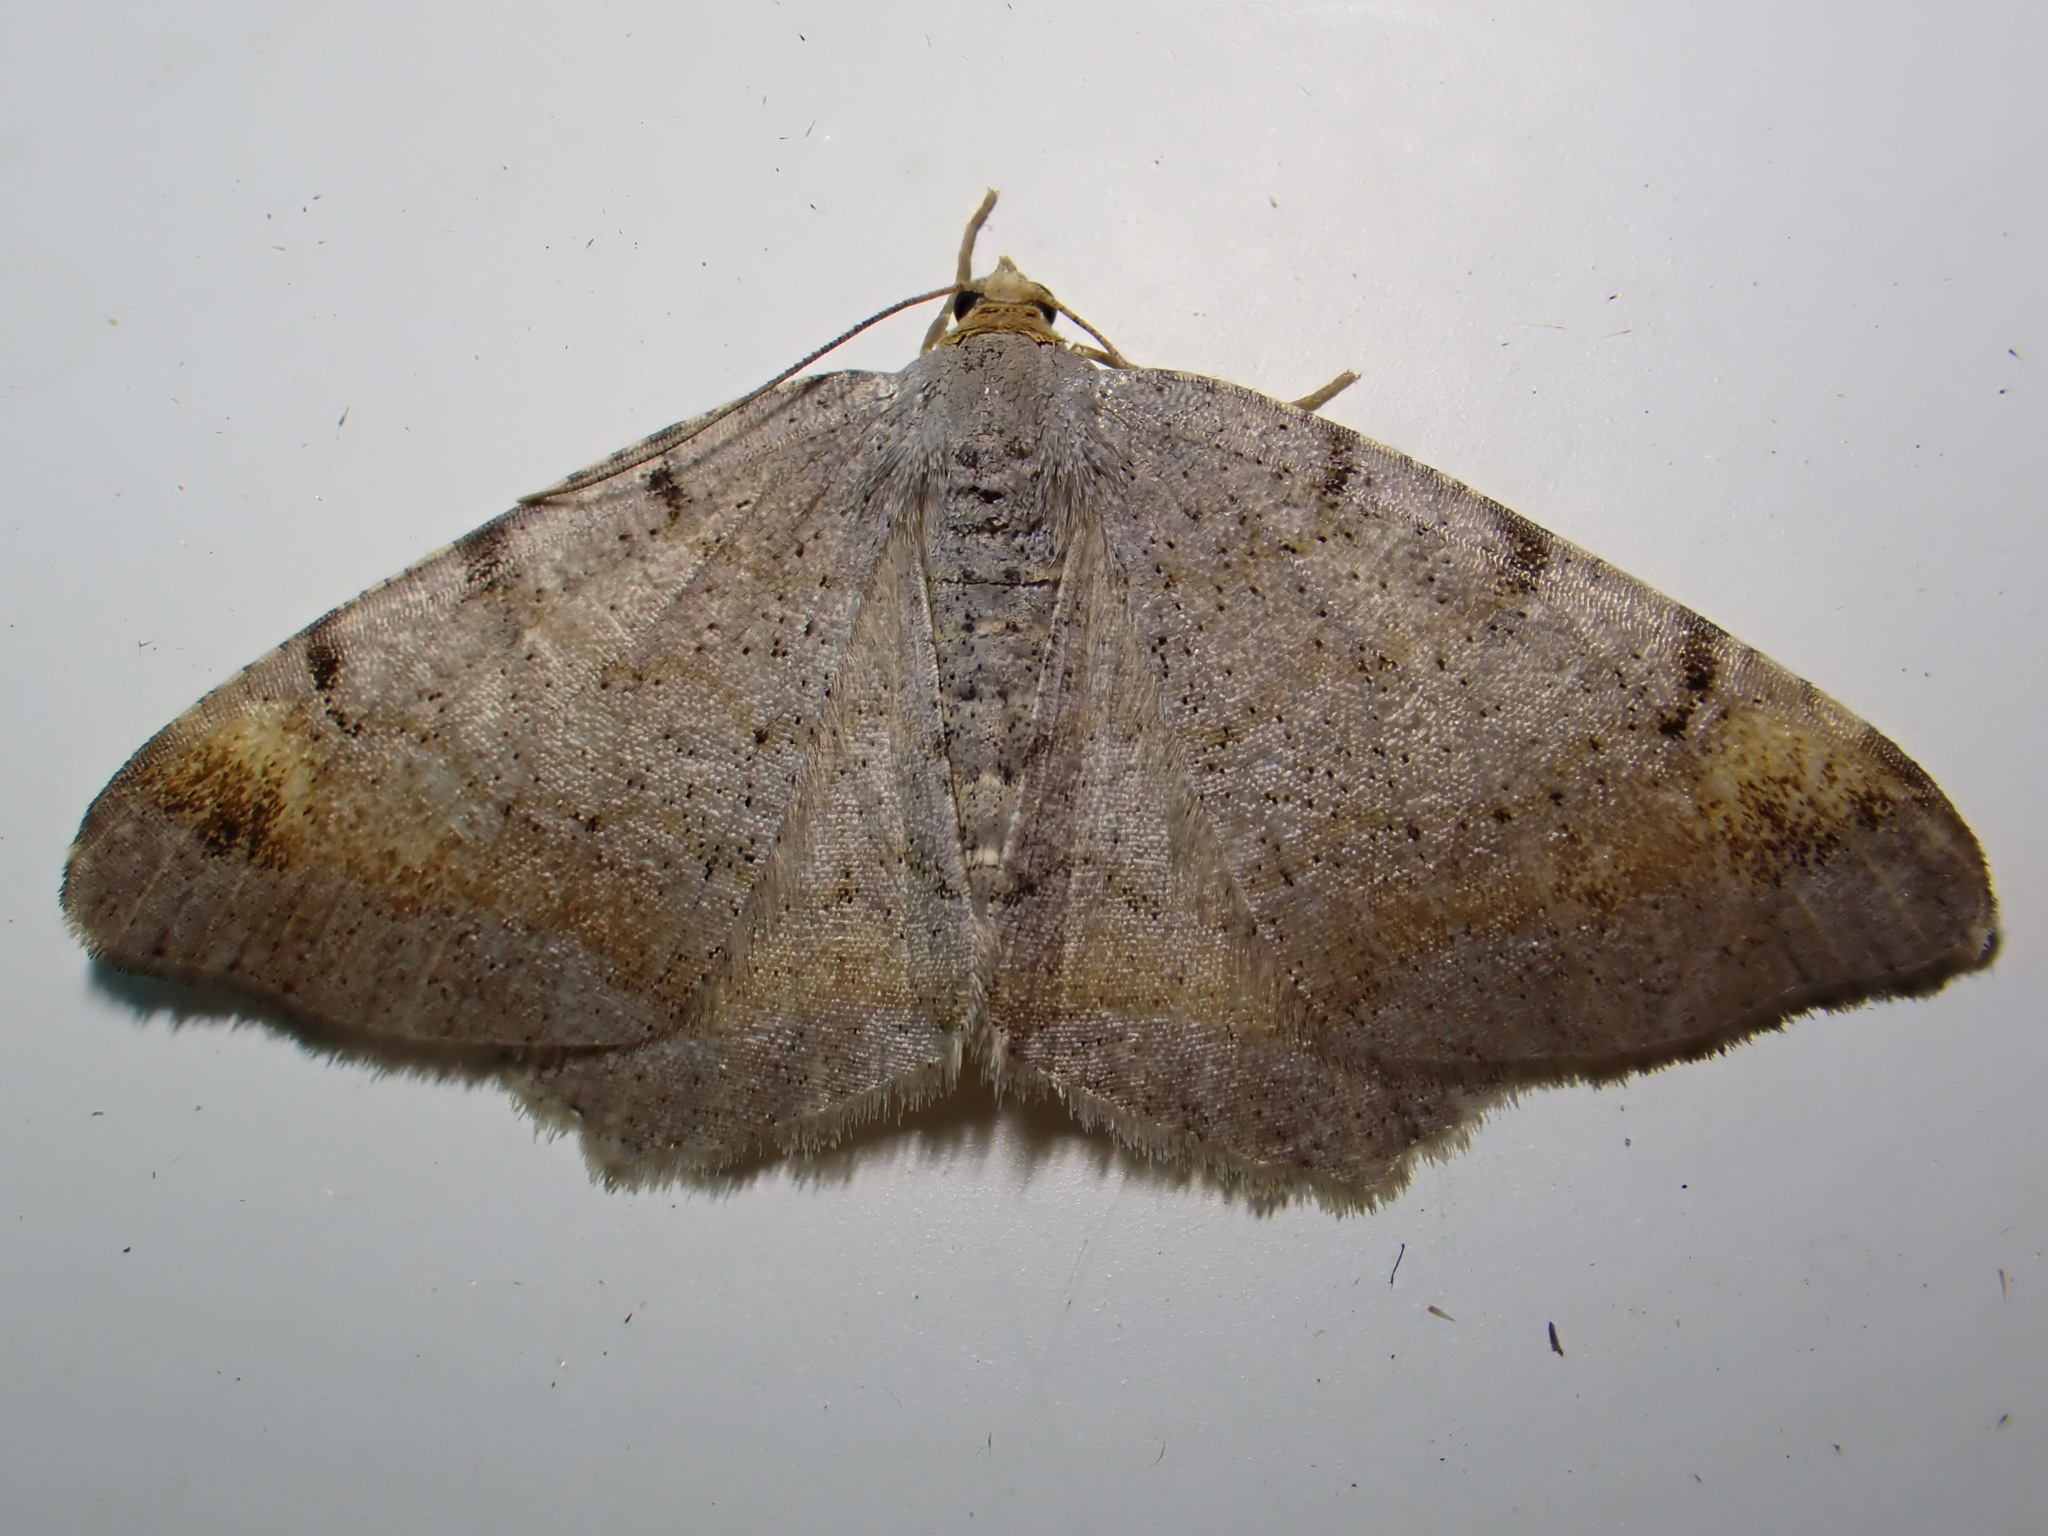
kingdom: Animalia
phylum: Arthropoda
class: Insecta
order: Lepidoptera
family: Geometridae
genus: Macaria
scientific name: Macaria liturata
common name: Tawny-barred angle
